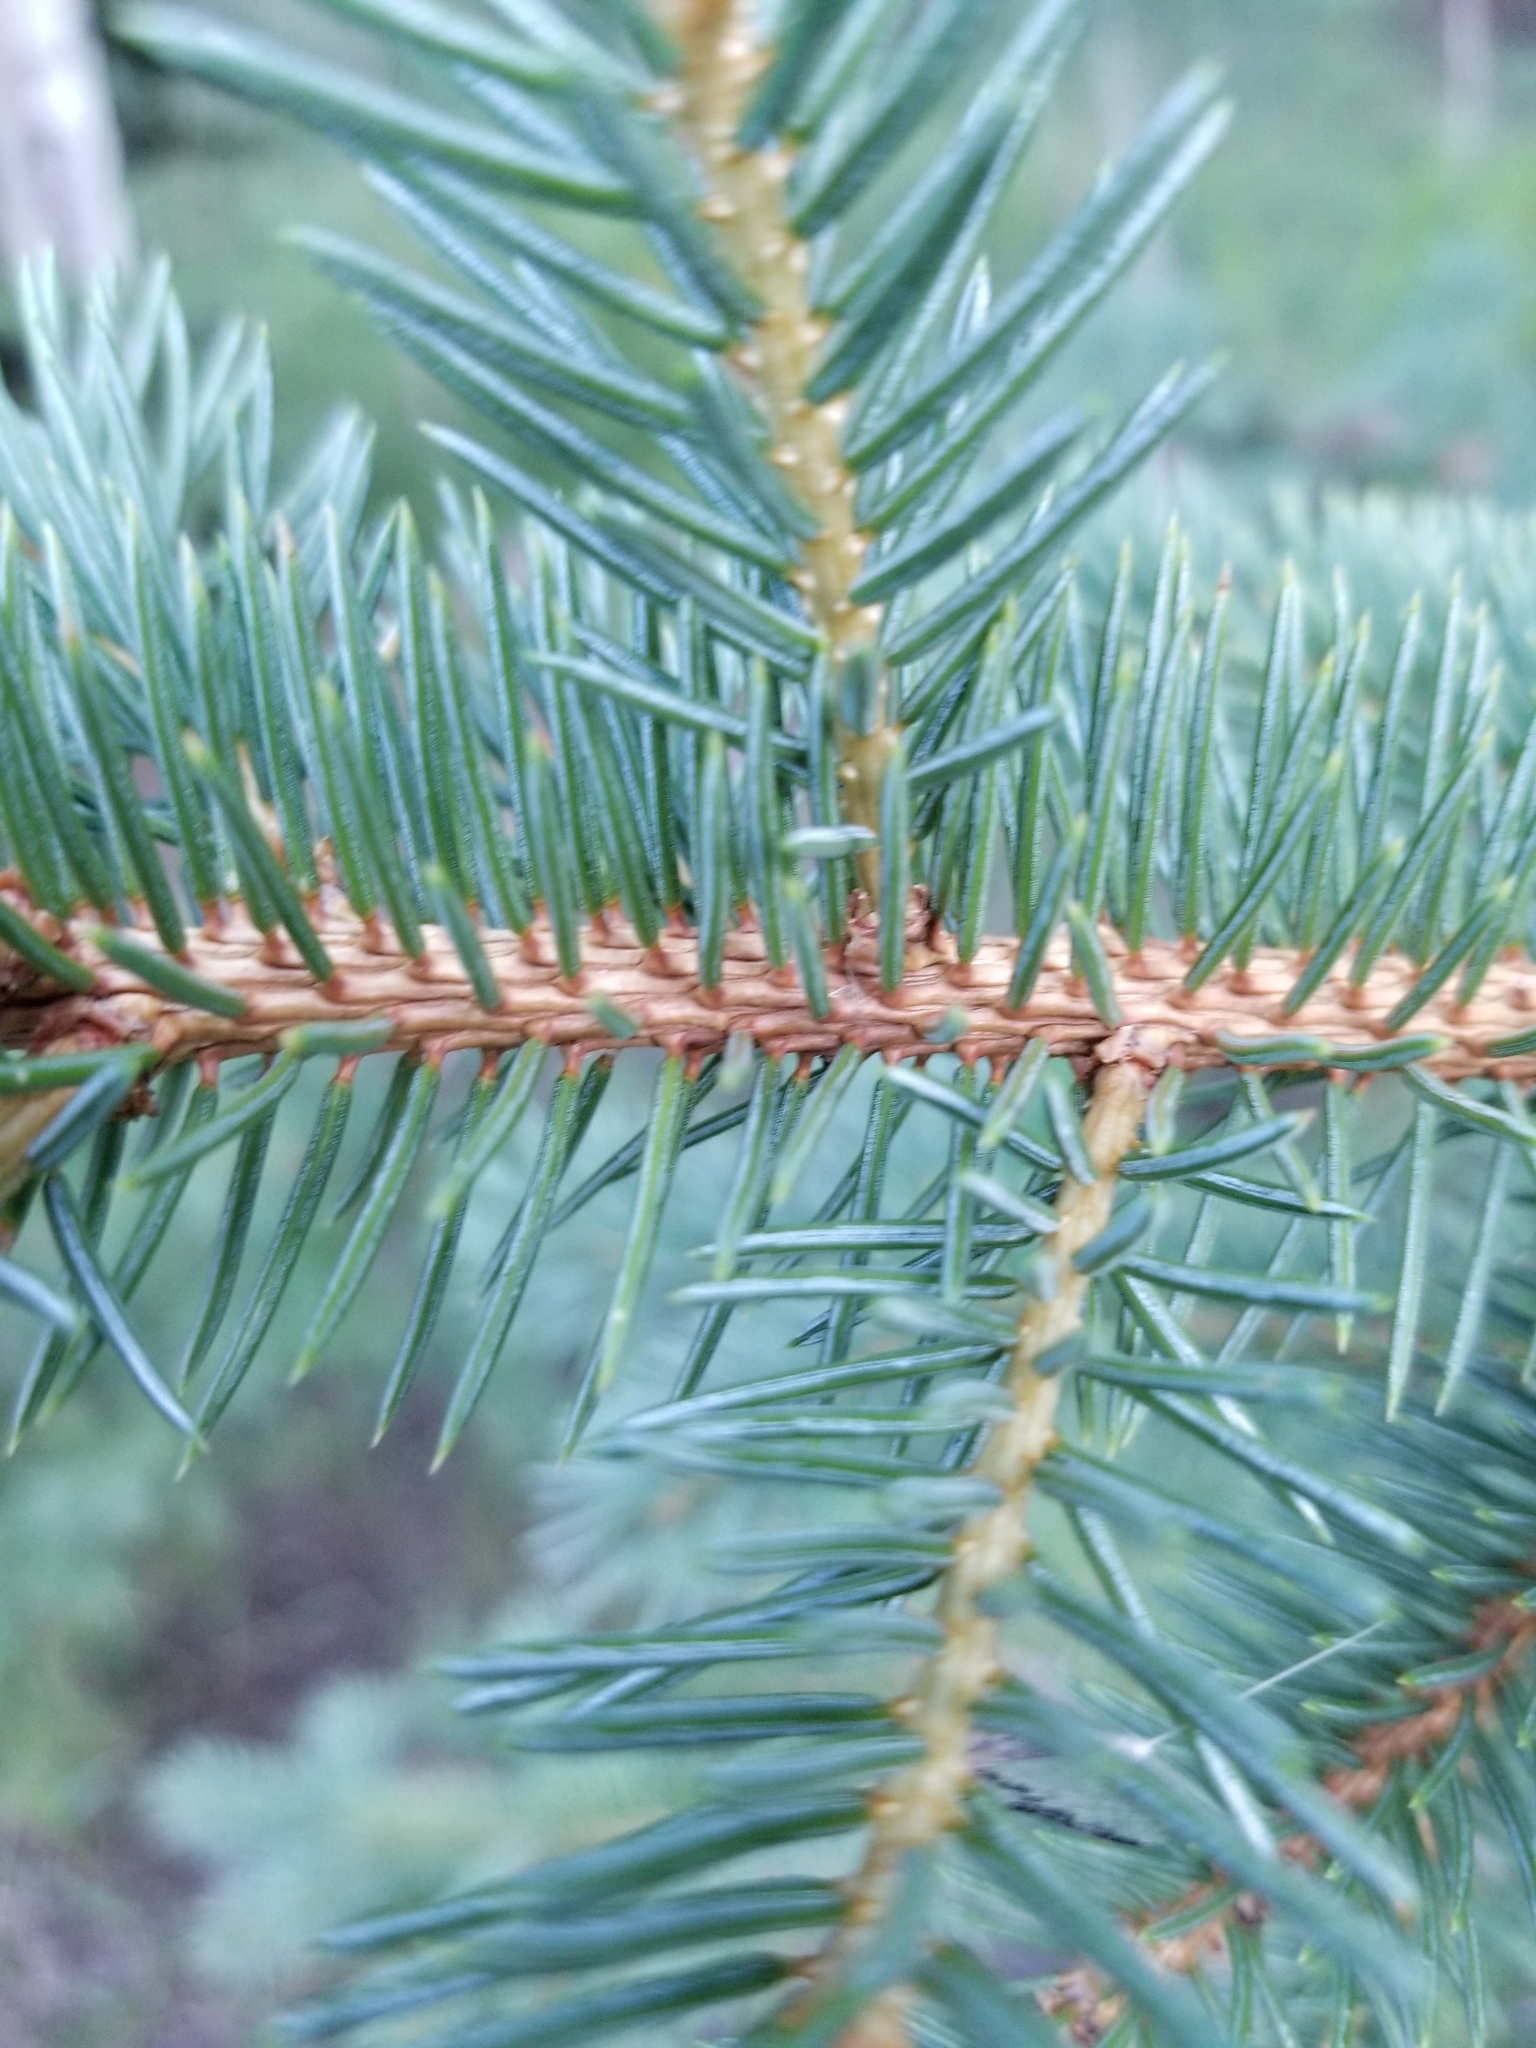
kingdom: Plantae
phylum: Tracheophyta
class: Pinopsida
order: Pinales
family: Pinaceae
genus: Picea
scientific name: Picea pungens
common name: Colorado spruce
